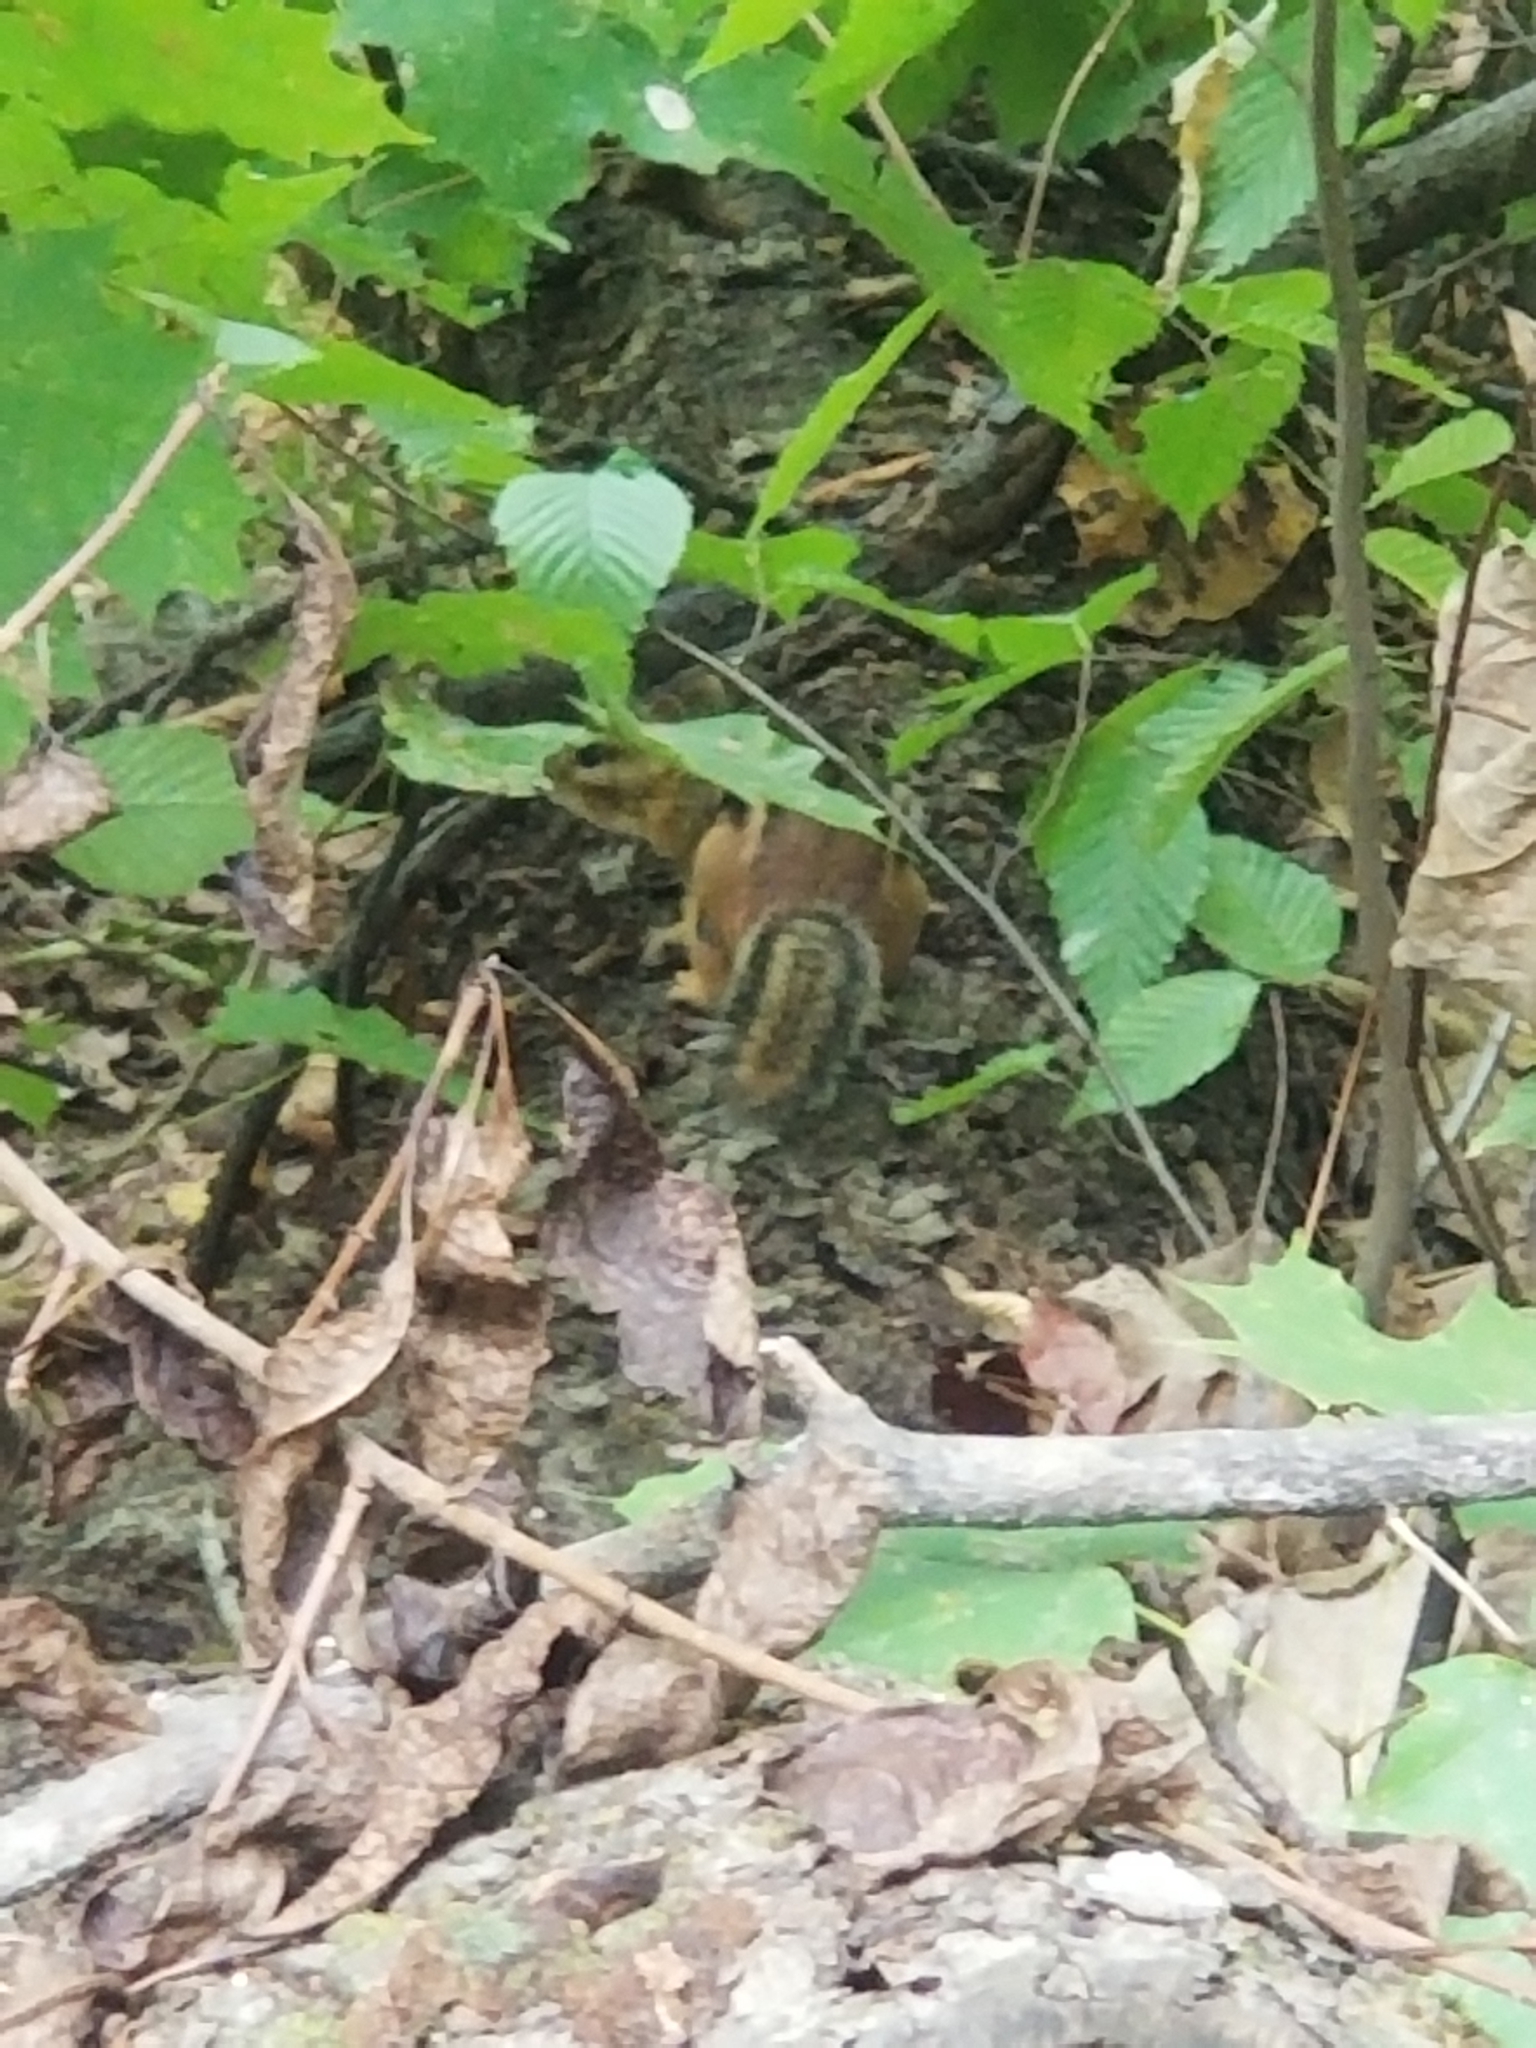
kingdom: Animalia
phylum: Chordata
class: Mammalia
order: Rodentia
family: Sciuridae
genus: Tamias
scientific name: Tamias striatus
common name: Eastern chipmunk
